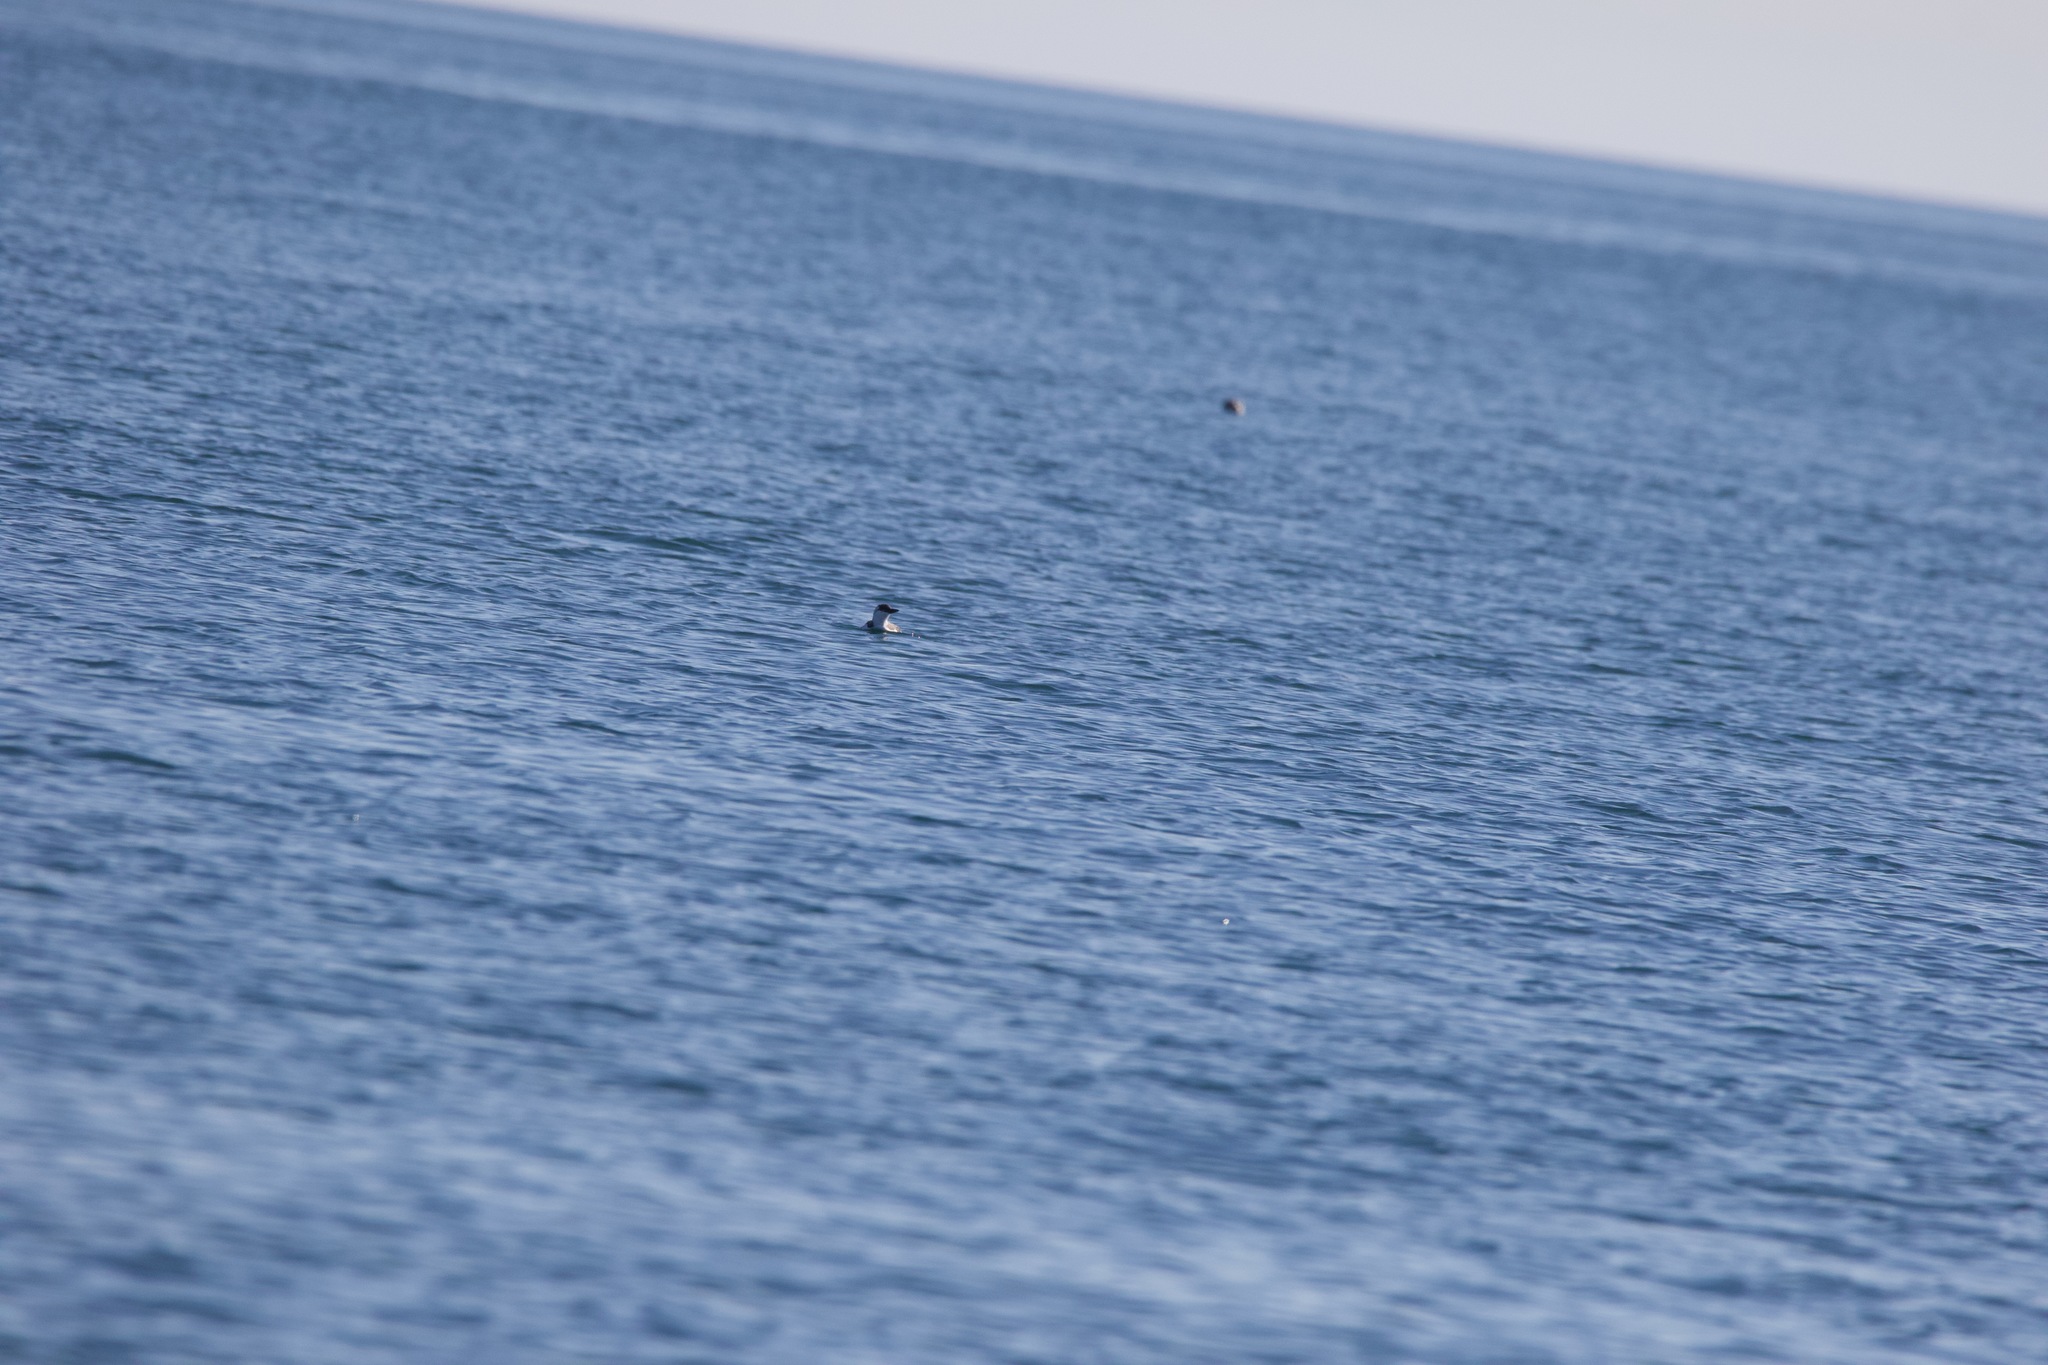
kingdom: Animalia
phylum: Chordata
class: Aves
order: Charadriiformes
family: Alcidae
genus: Cepphus
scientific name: Cepphus columba
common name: Pigeon guillemot
